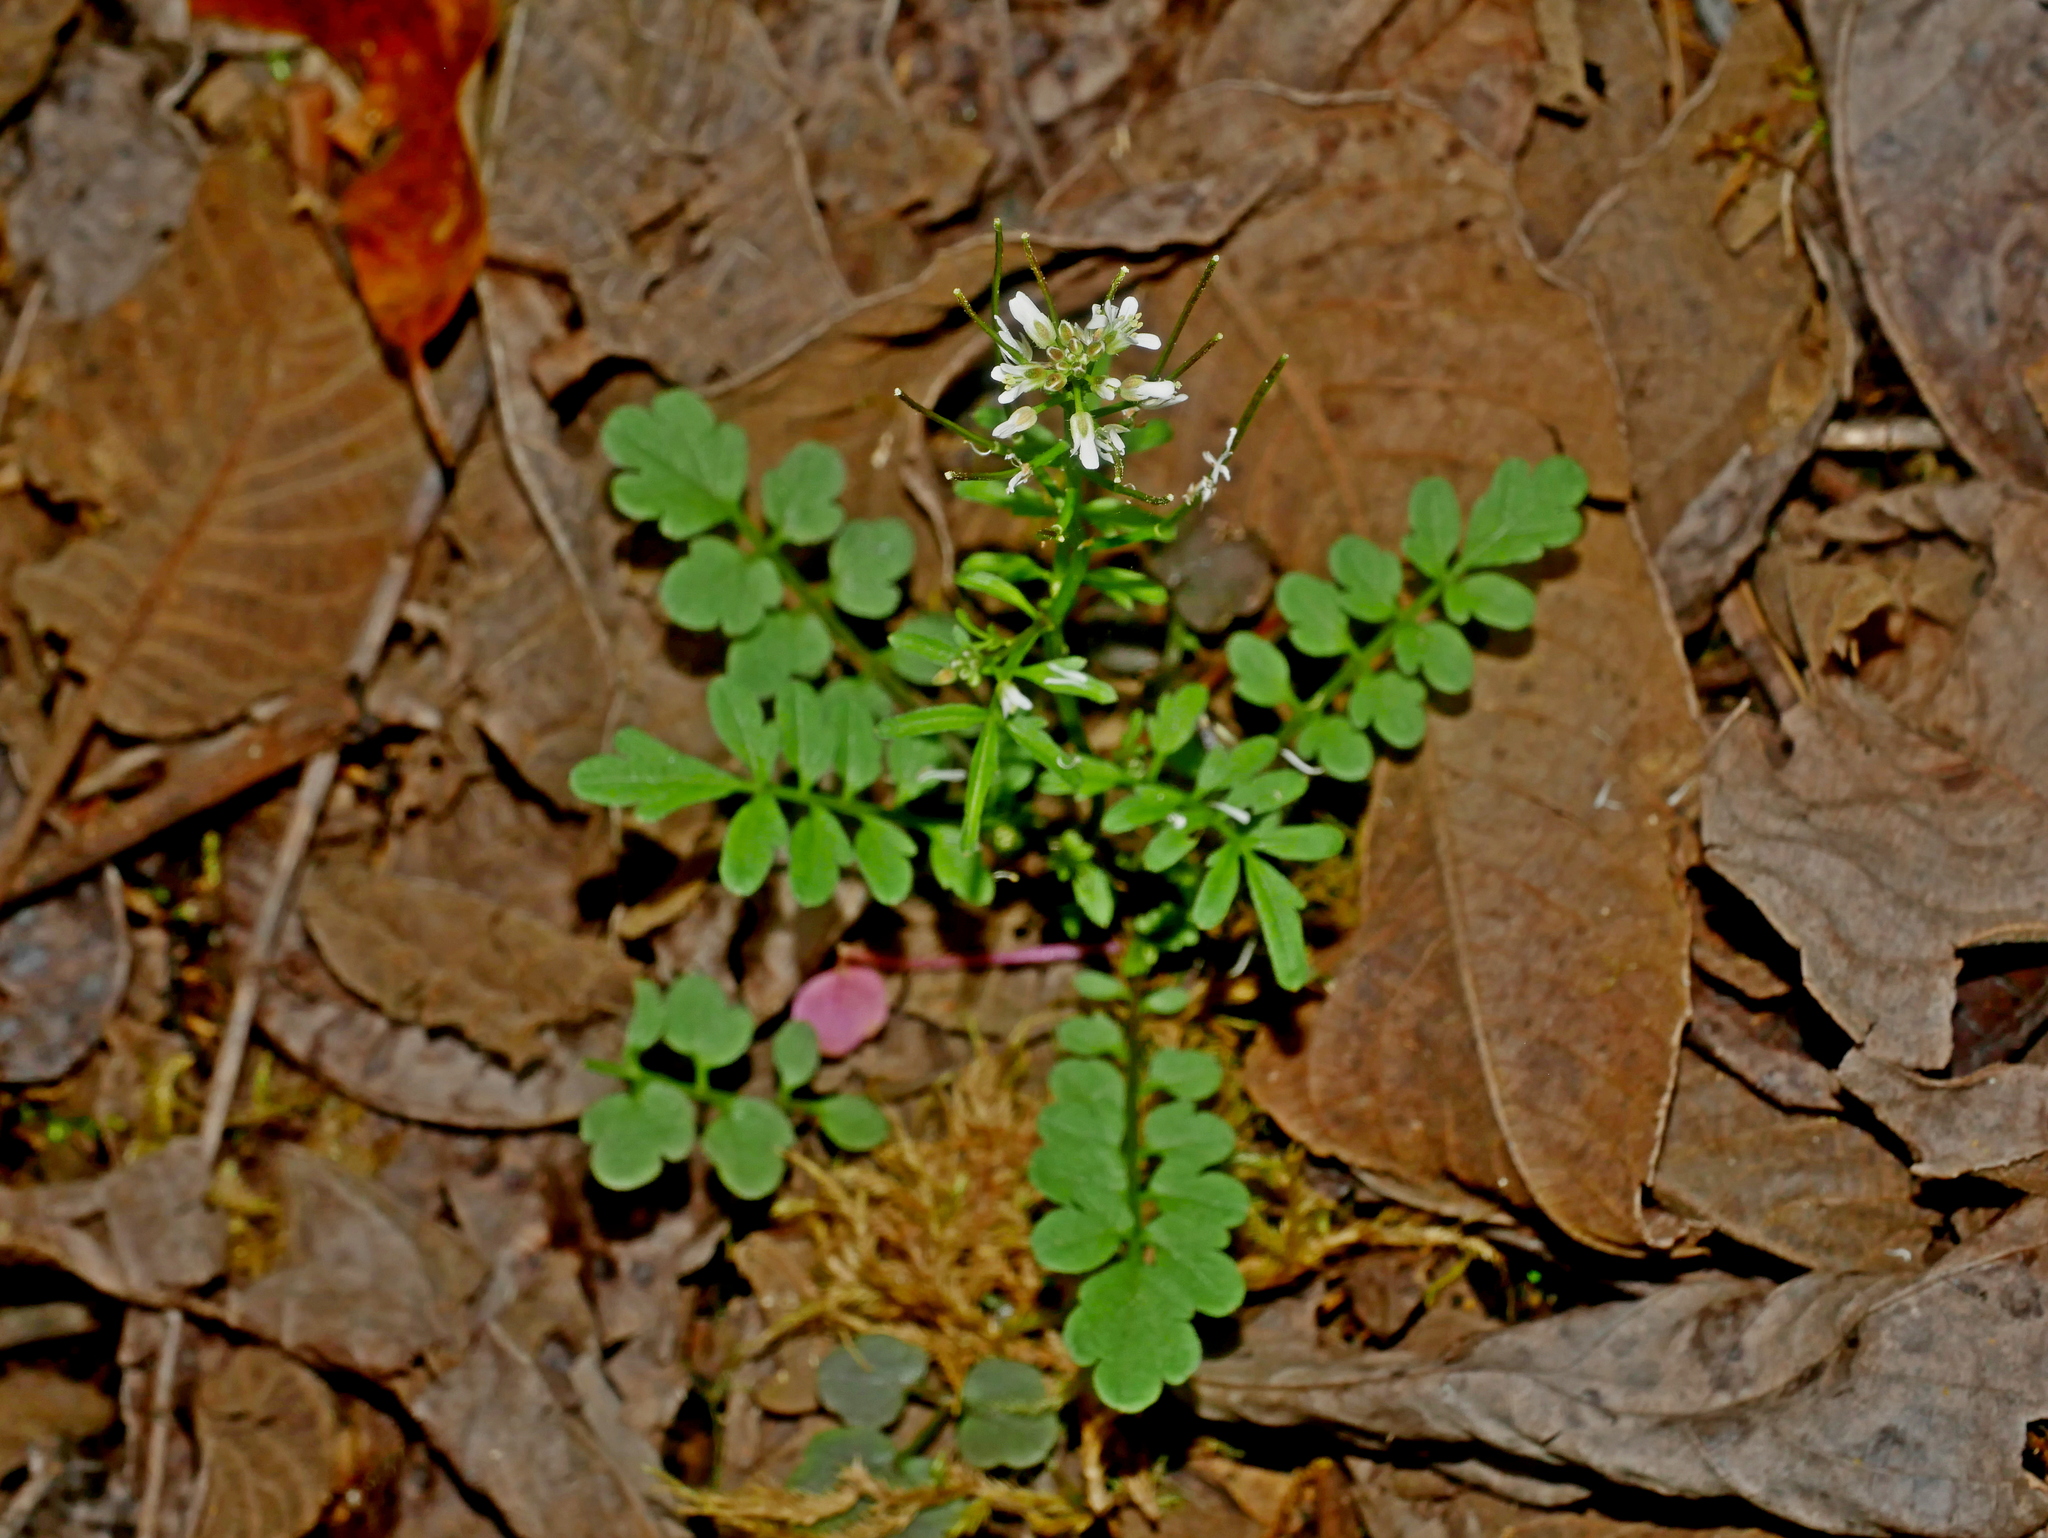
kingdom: Plantae
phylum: Tracheophyta
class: Magnoliopsida
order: Brassicales
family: Brassicaceae
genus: Cardamine
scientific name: Cardamine flexuosa
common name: Woodland bittercress
